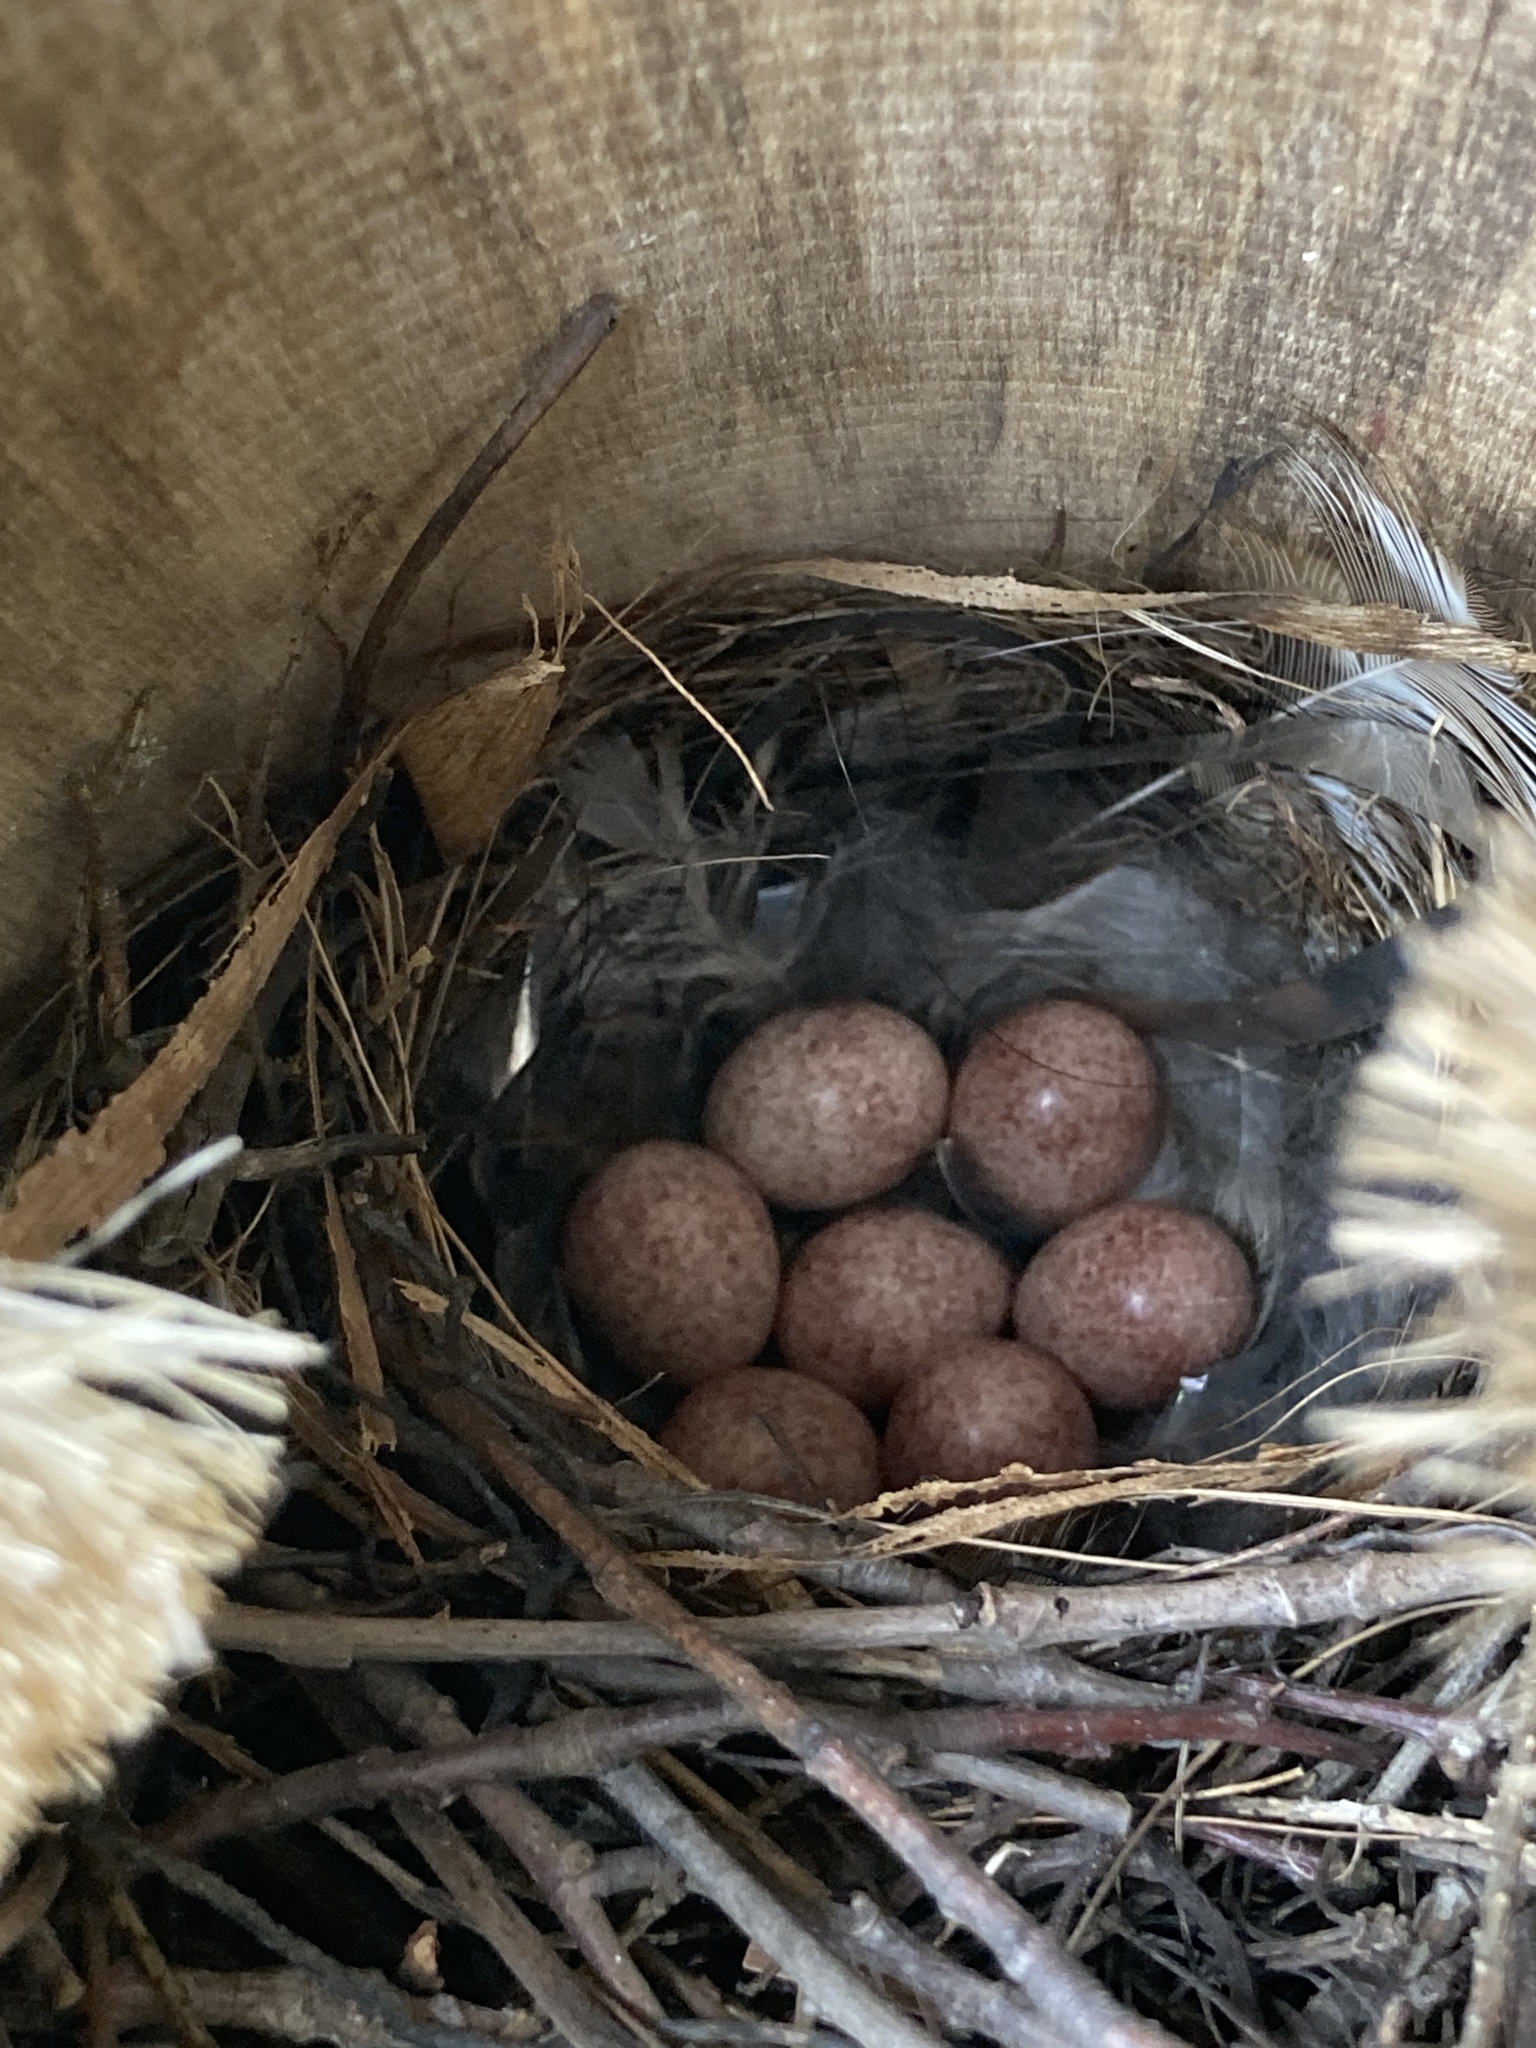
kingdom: Animalia
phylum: Chordata
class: Aves
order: Passeriformes
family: Troglodytidae
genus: Troglodytes
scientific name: Troglodytes aedon
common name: House wren
